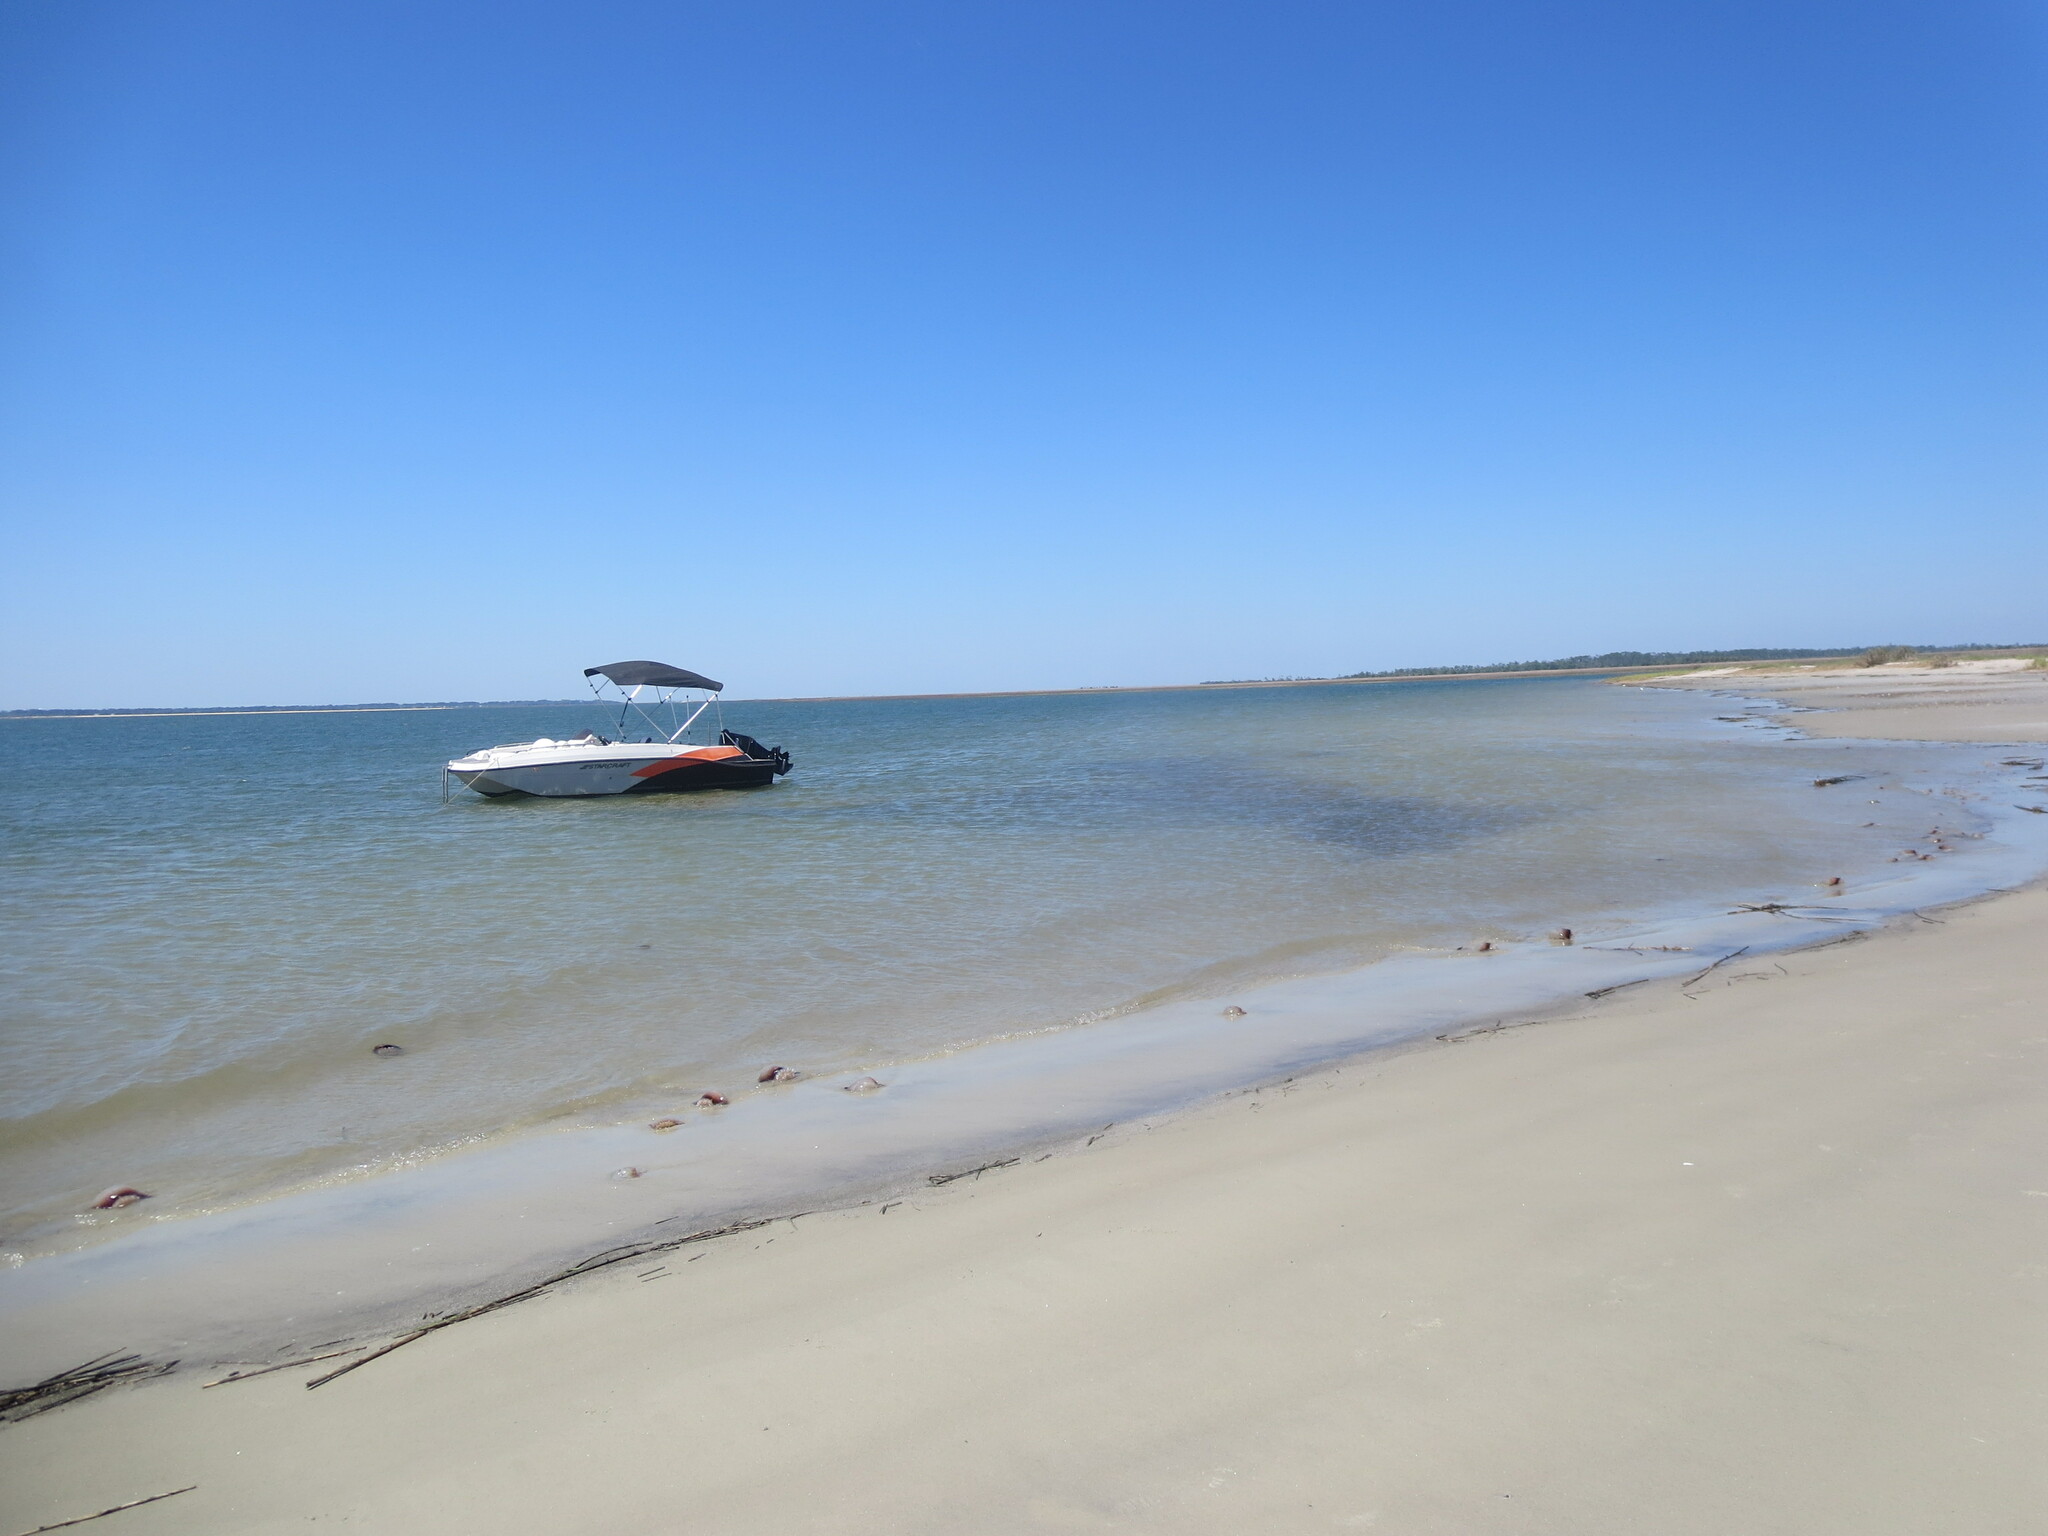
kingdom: Animalia
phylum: Cnidaria
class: Scyphozoa
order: Rhizostomeae
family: Stomolophidae
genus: Stomolophus
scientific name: Stomolophus meleagris
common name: Cabbagehead
